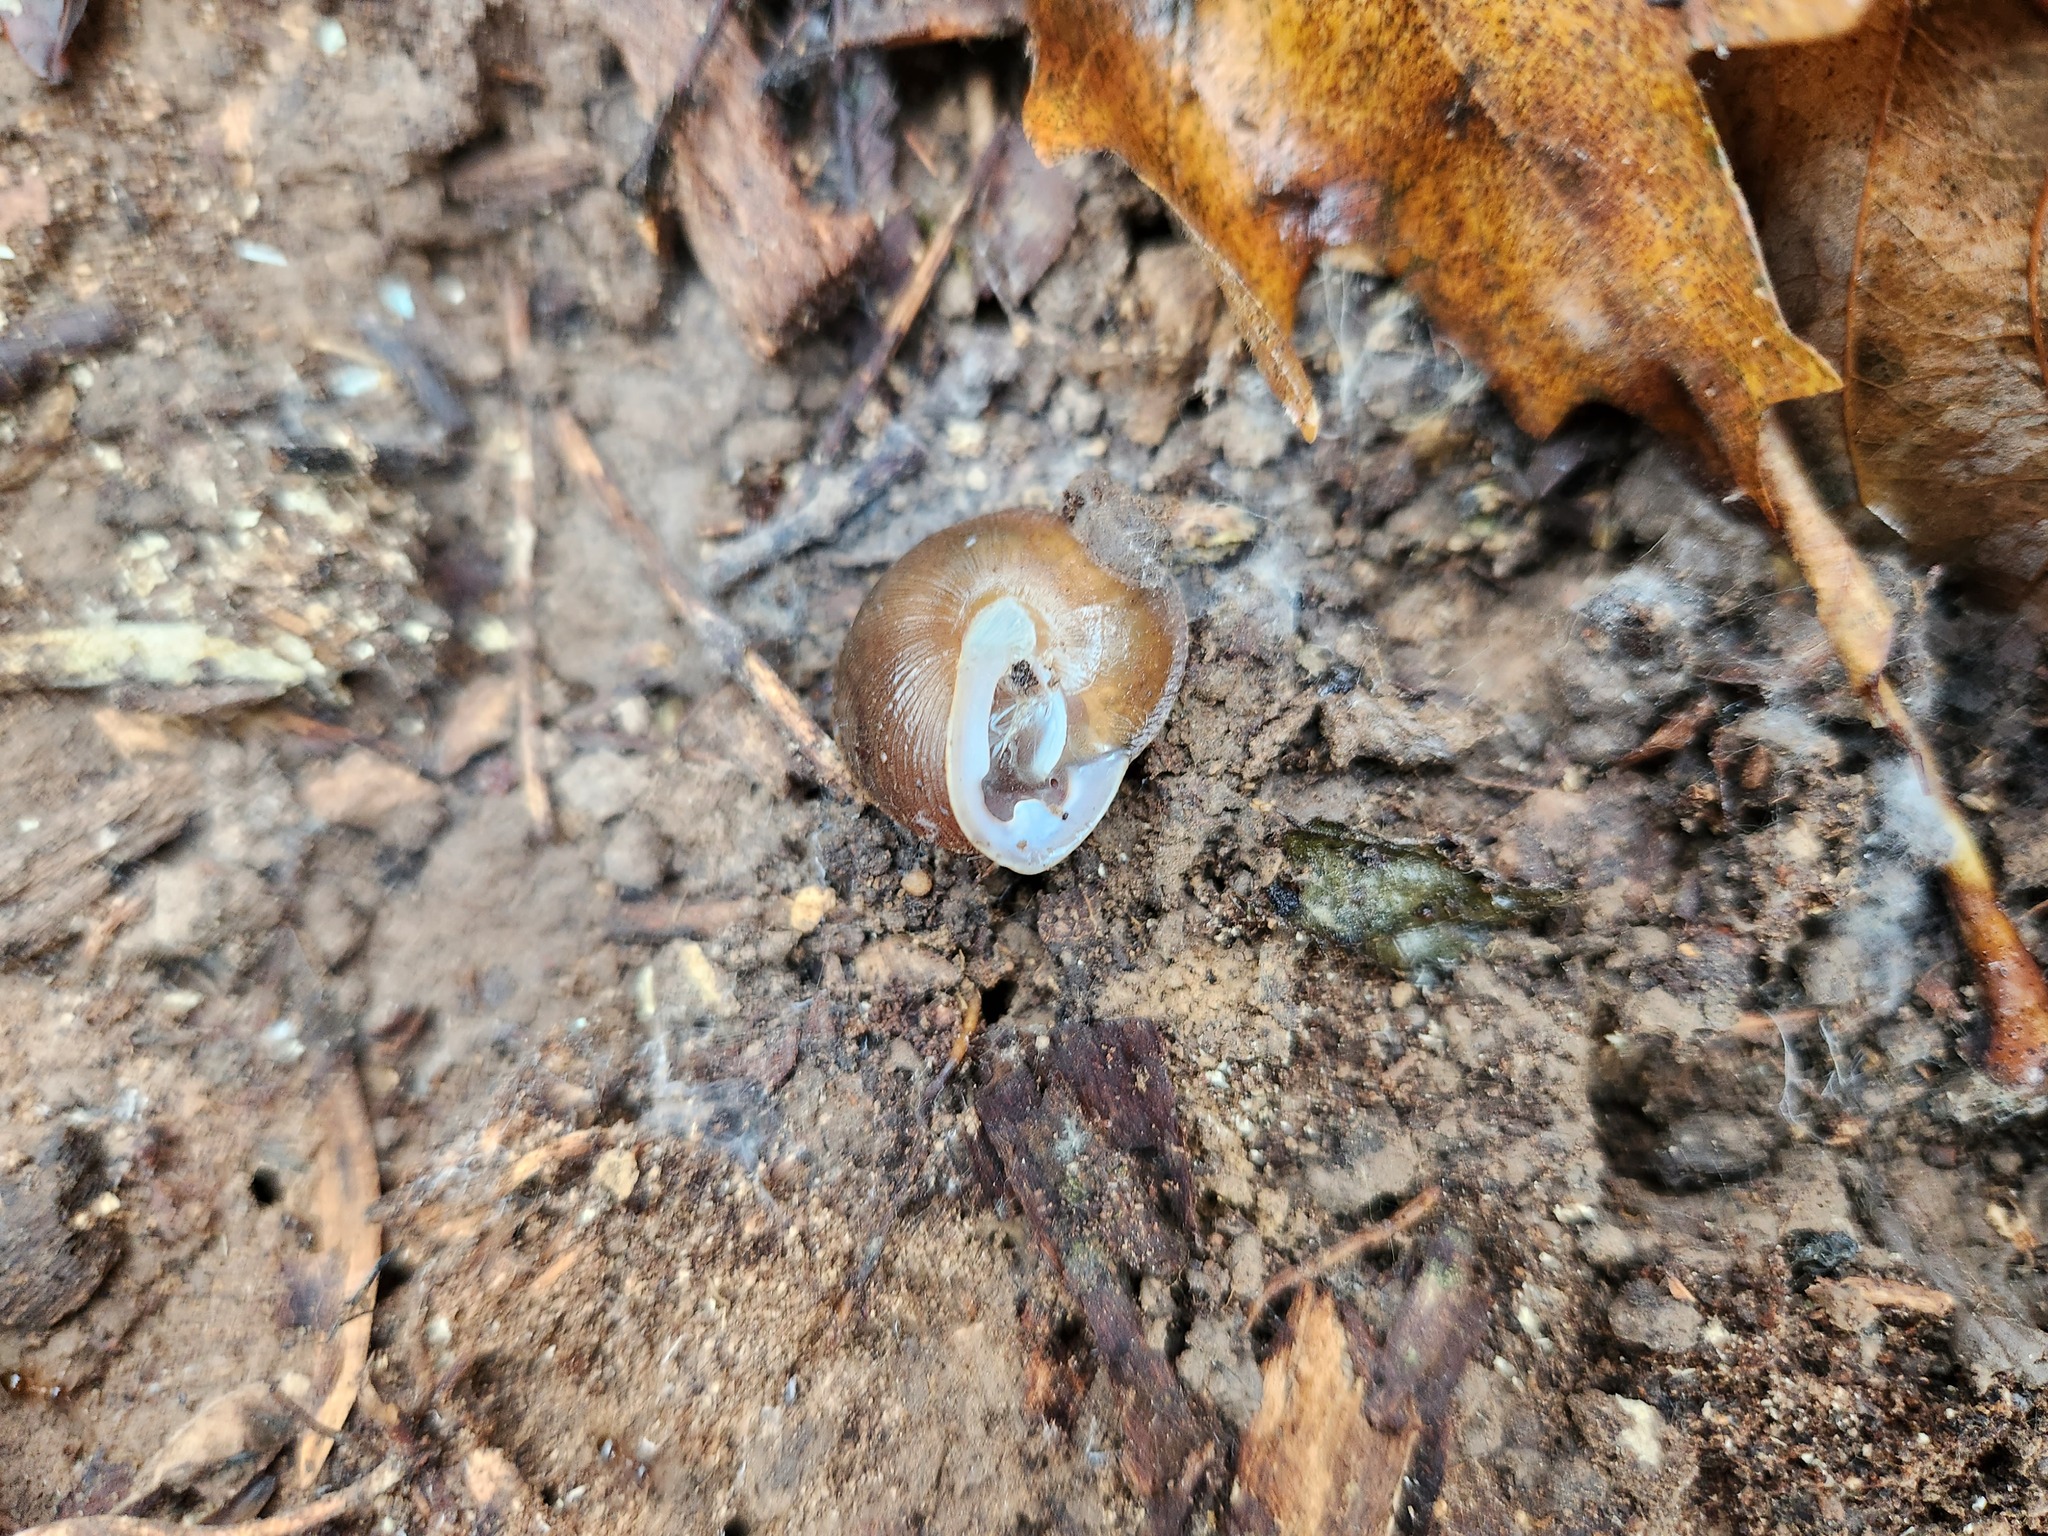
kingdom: Animalia
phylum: Mollusca
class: Gastropoda
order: Stylommatophora
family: Polygyridae
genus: Xolotrema
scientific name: Xolotrema obstrictum
